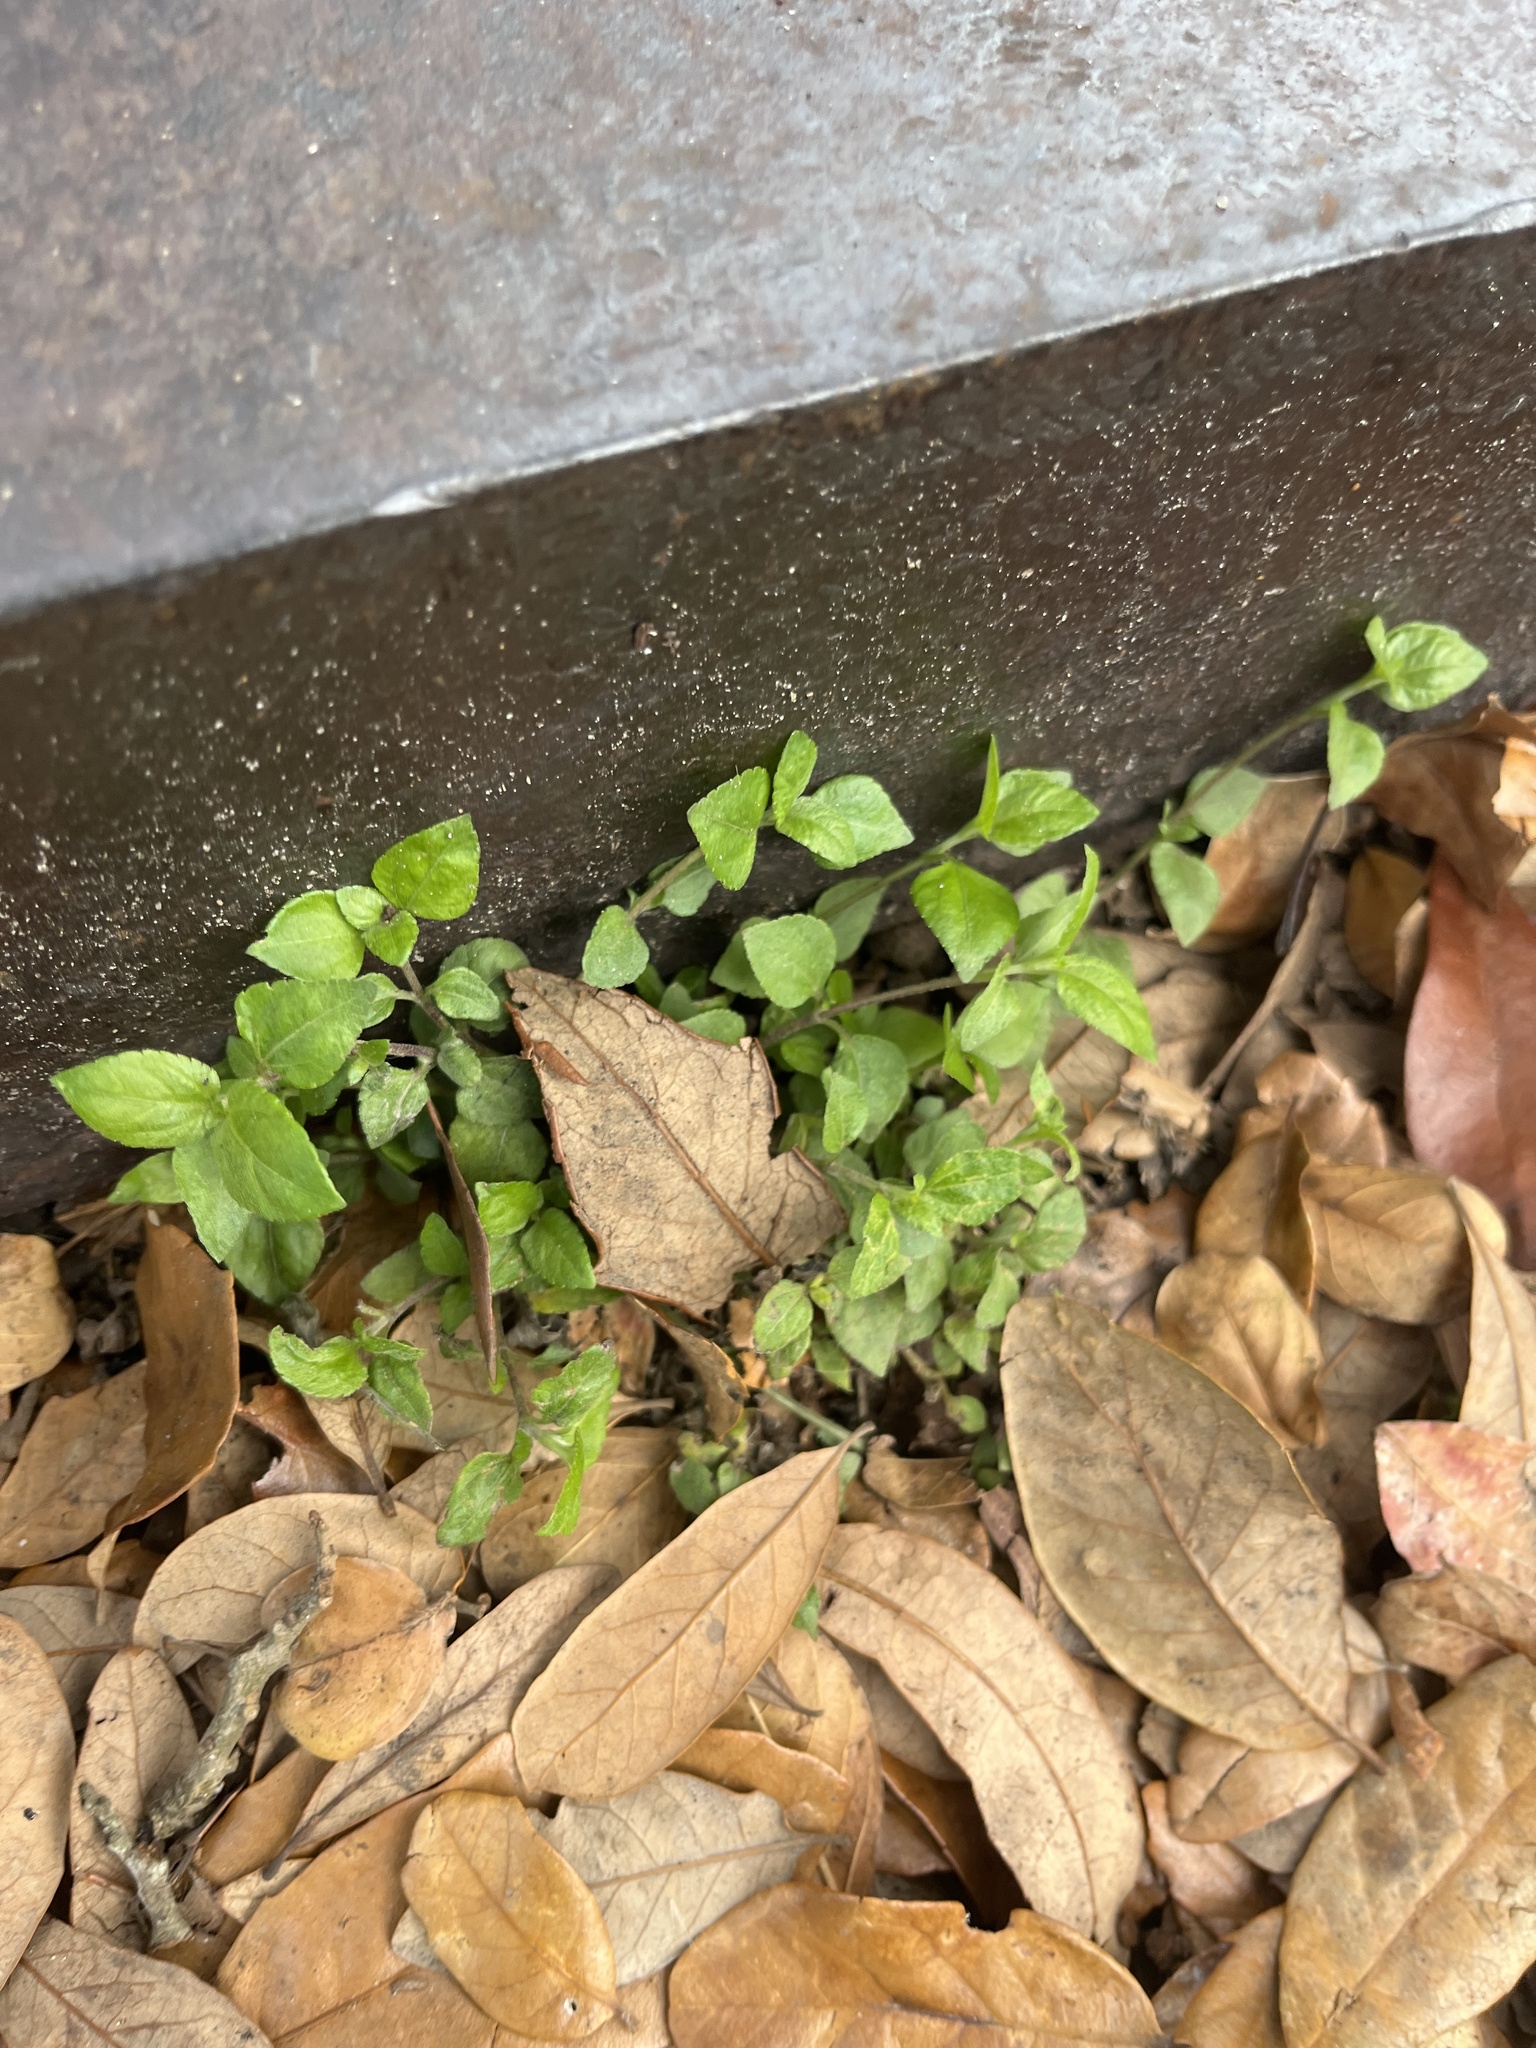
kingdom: Plantae
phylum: Tracheophyta
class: Magnoliopsida
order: Asterales
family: Asteraceae
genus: Calyptocarpus
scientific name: Calyptocarpus vialis
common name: Straggler daisy
